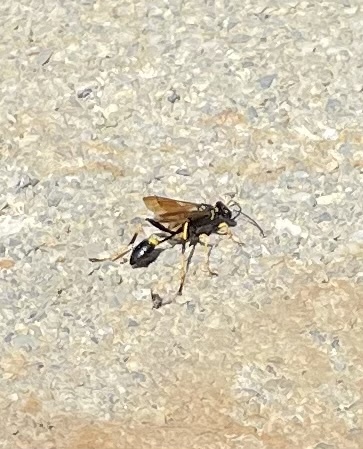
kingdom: Animalia
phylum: Arthropoda
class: Insecta
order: Hymenoptera
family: Sphecidae
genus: Sceliphron
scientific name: Sceliphron caementarium
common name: Mud dauber
